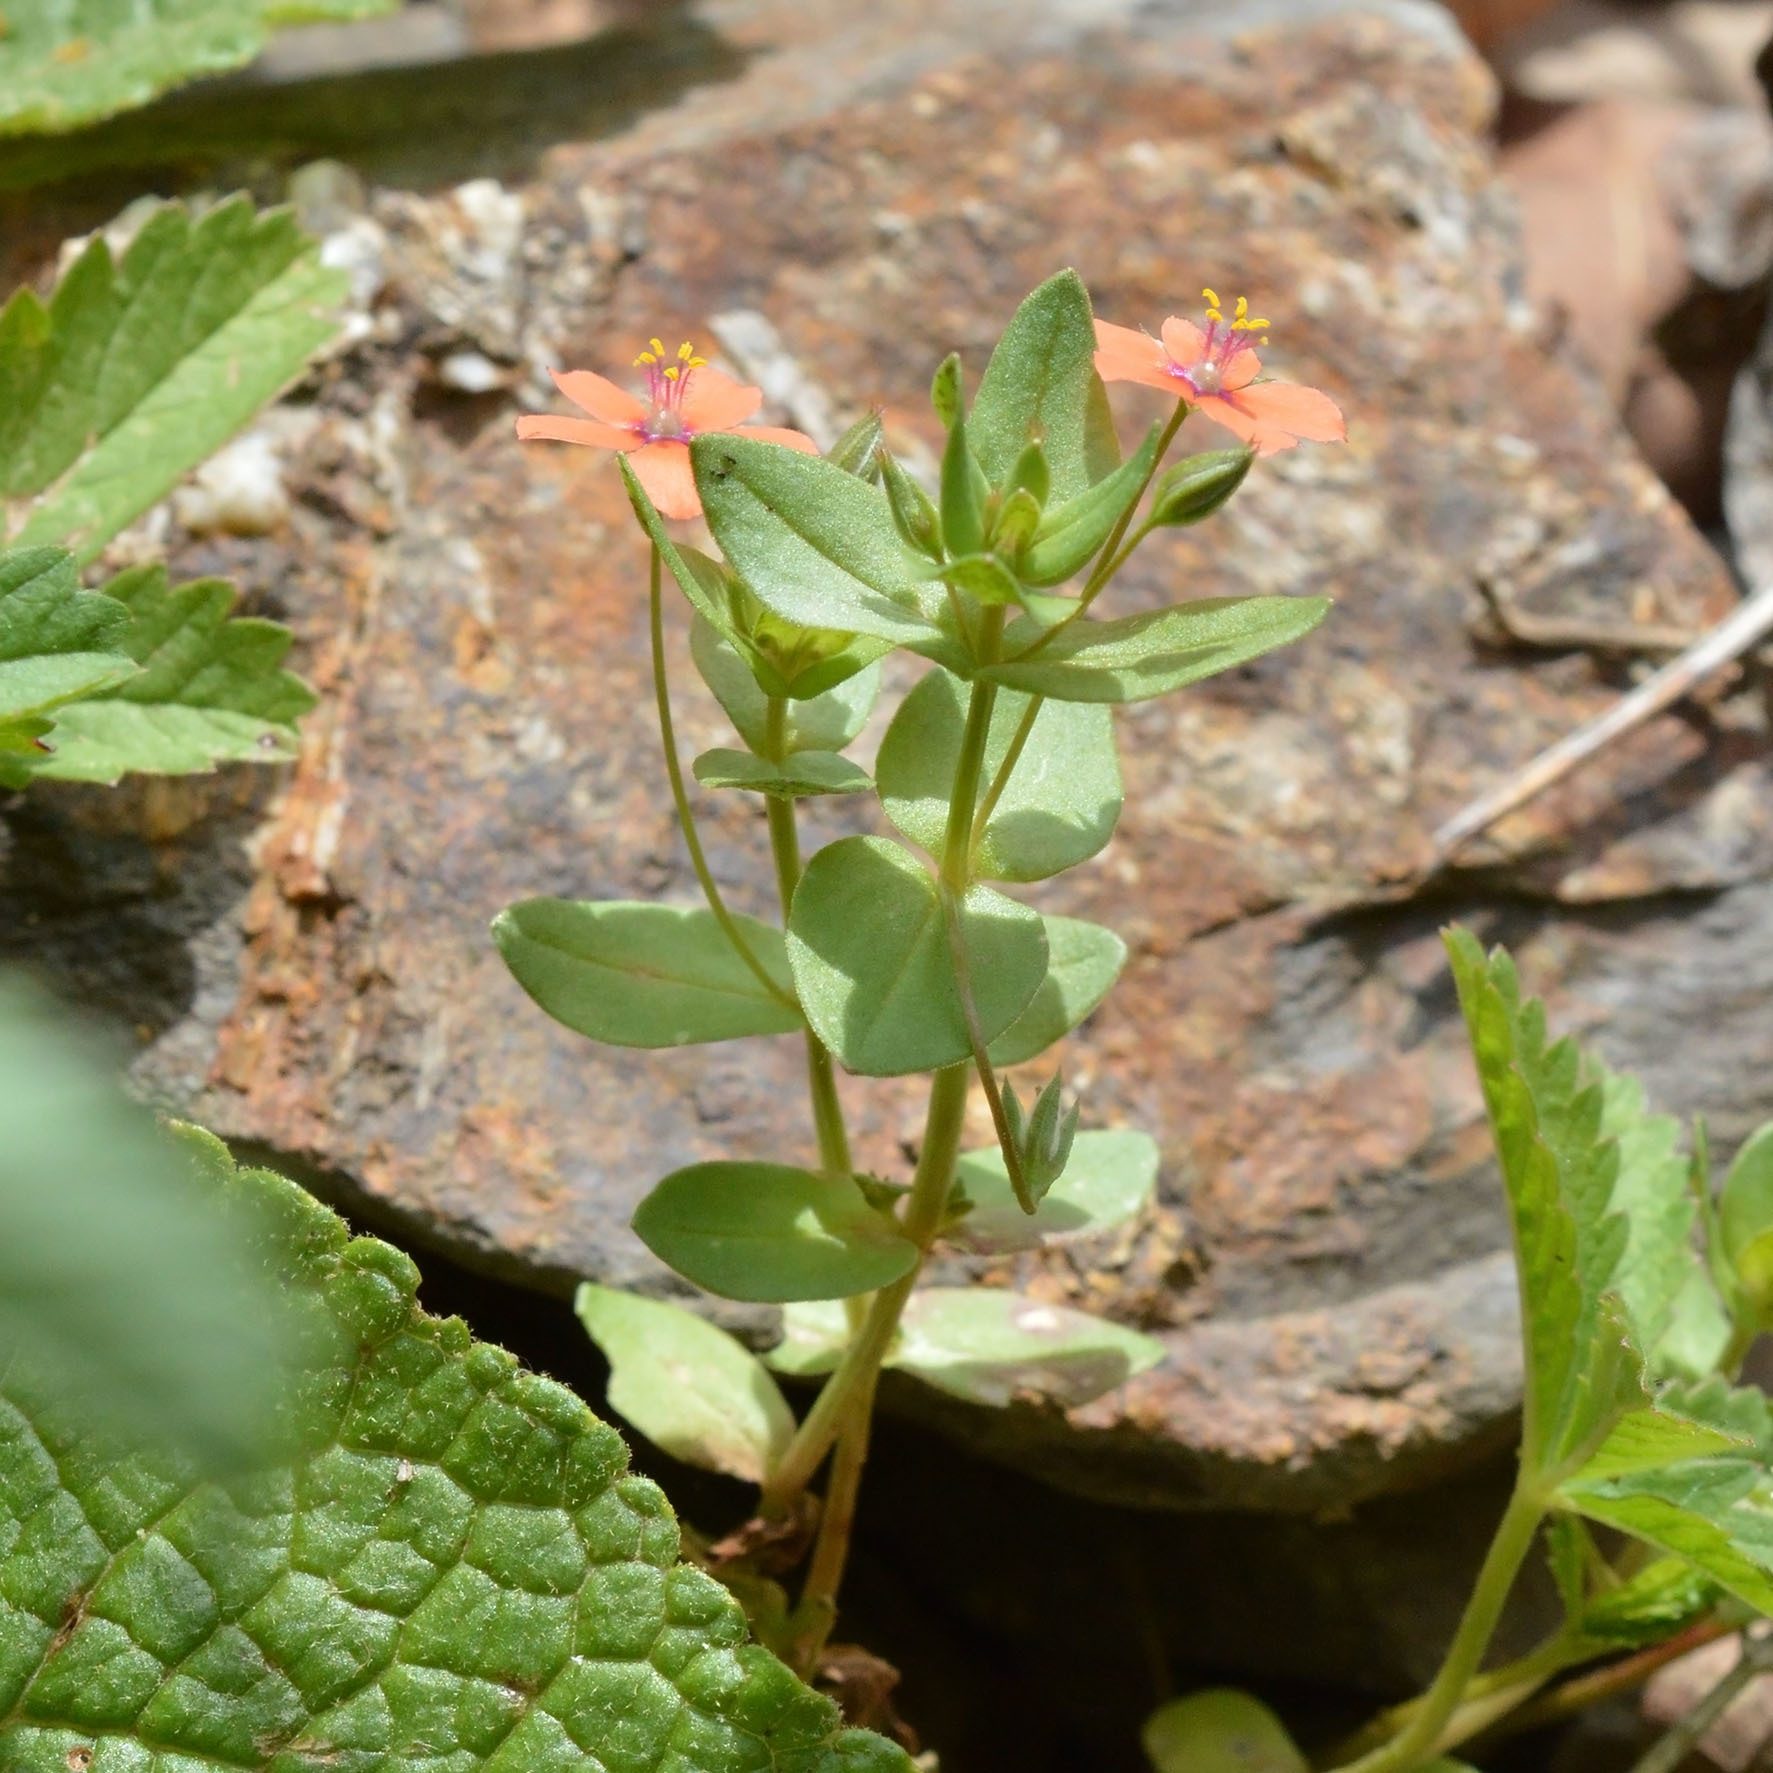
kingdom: Plantae
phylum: Tracheophyta
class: Magnoliopsida
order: Ericales
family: Primulaceae
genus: Lysimachia
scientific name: Lysimachia arvensis
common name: Scarlet pimpernel
